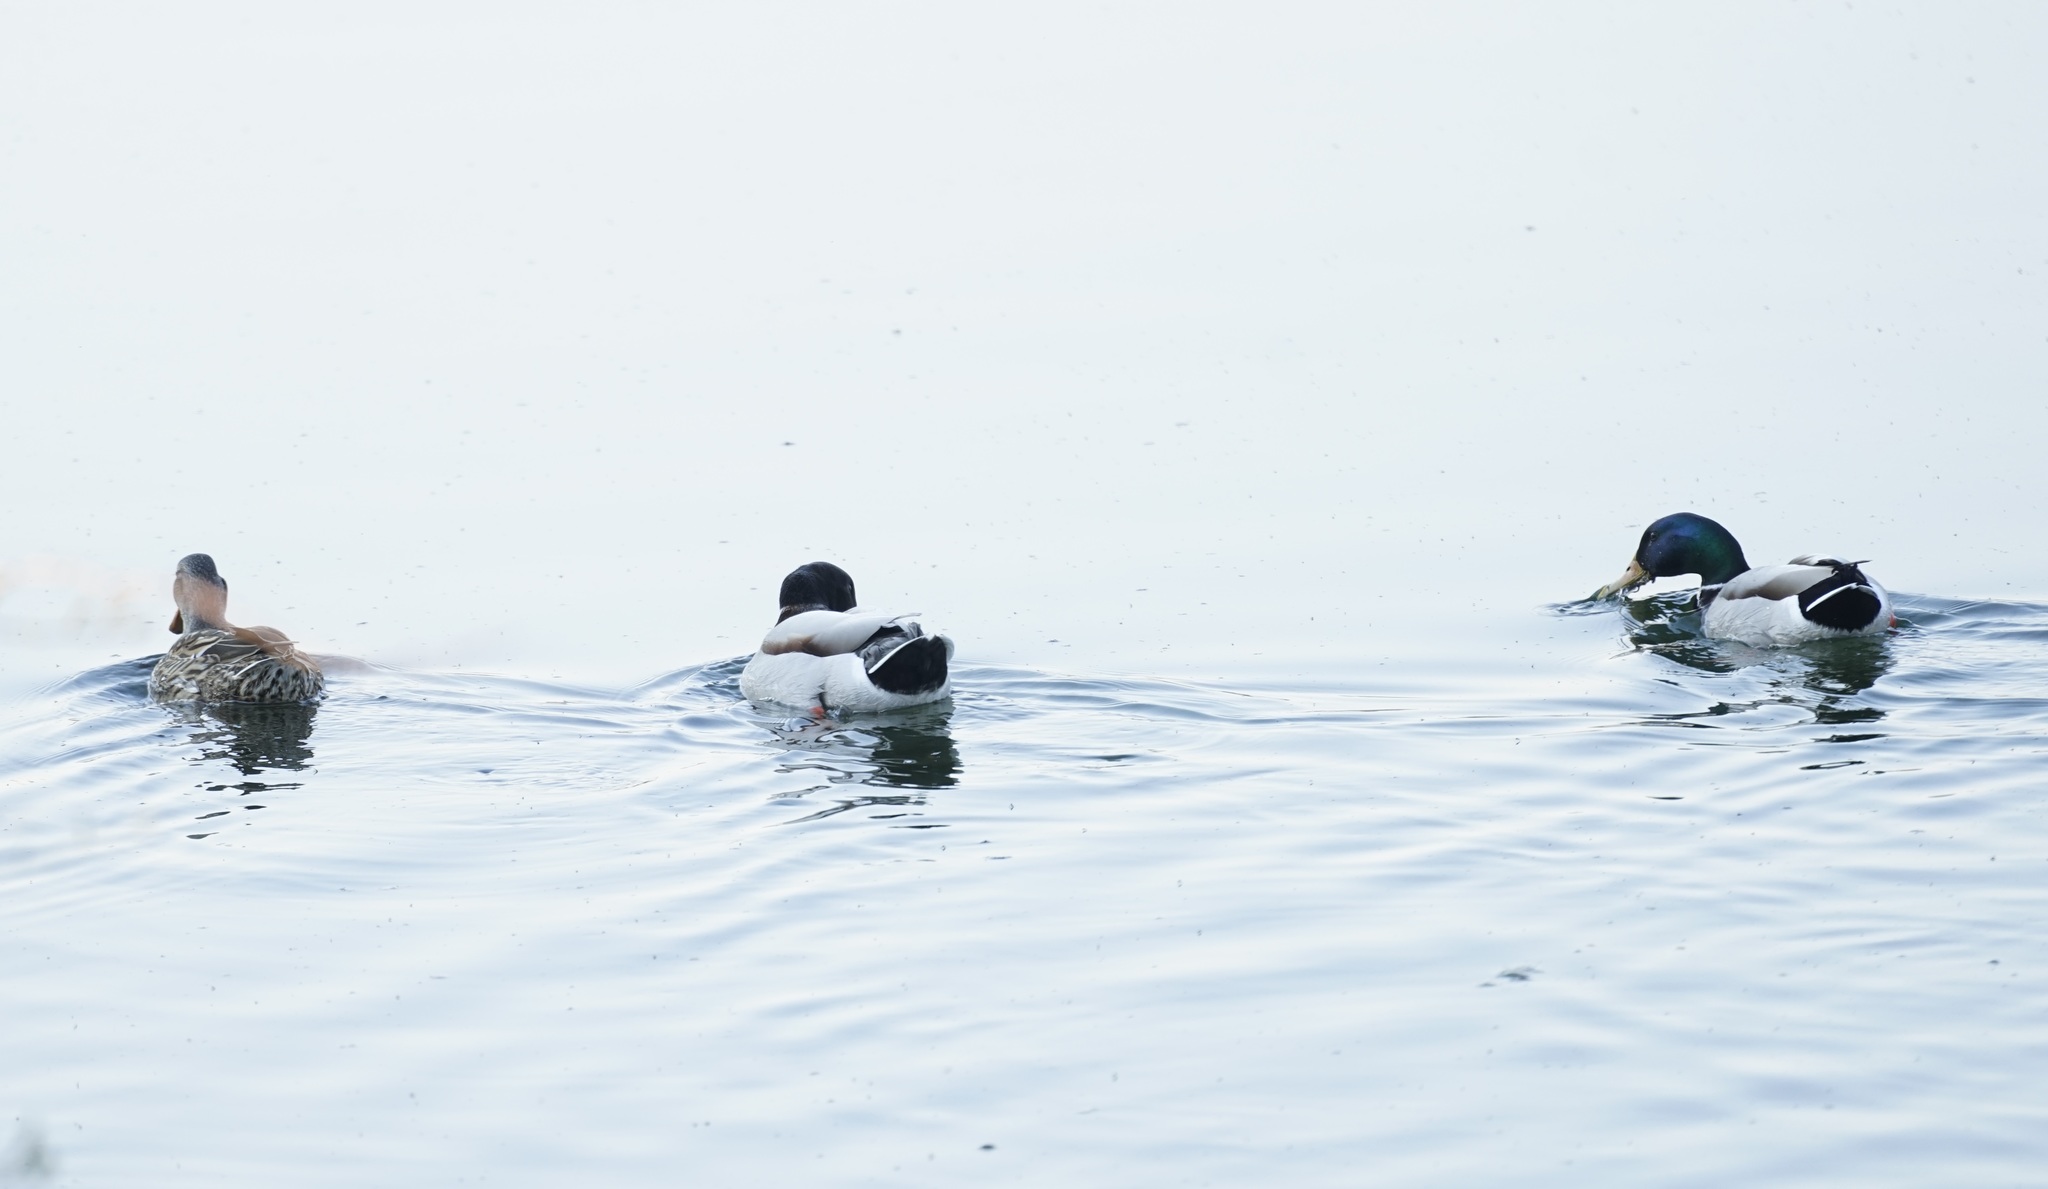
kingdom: Animalia
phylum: Chordata
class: Aves
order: Anseriformes
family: Anatidae
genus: Anas
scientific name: Anas platyrhynchos
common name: Mallard
